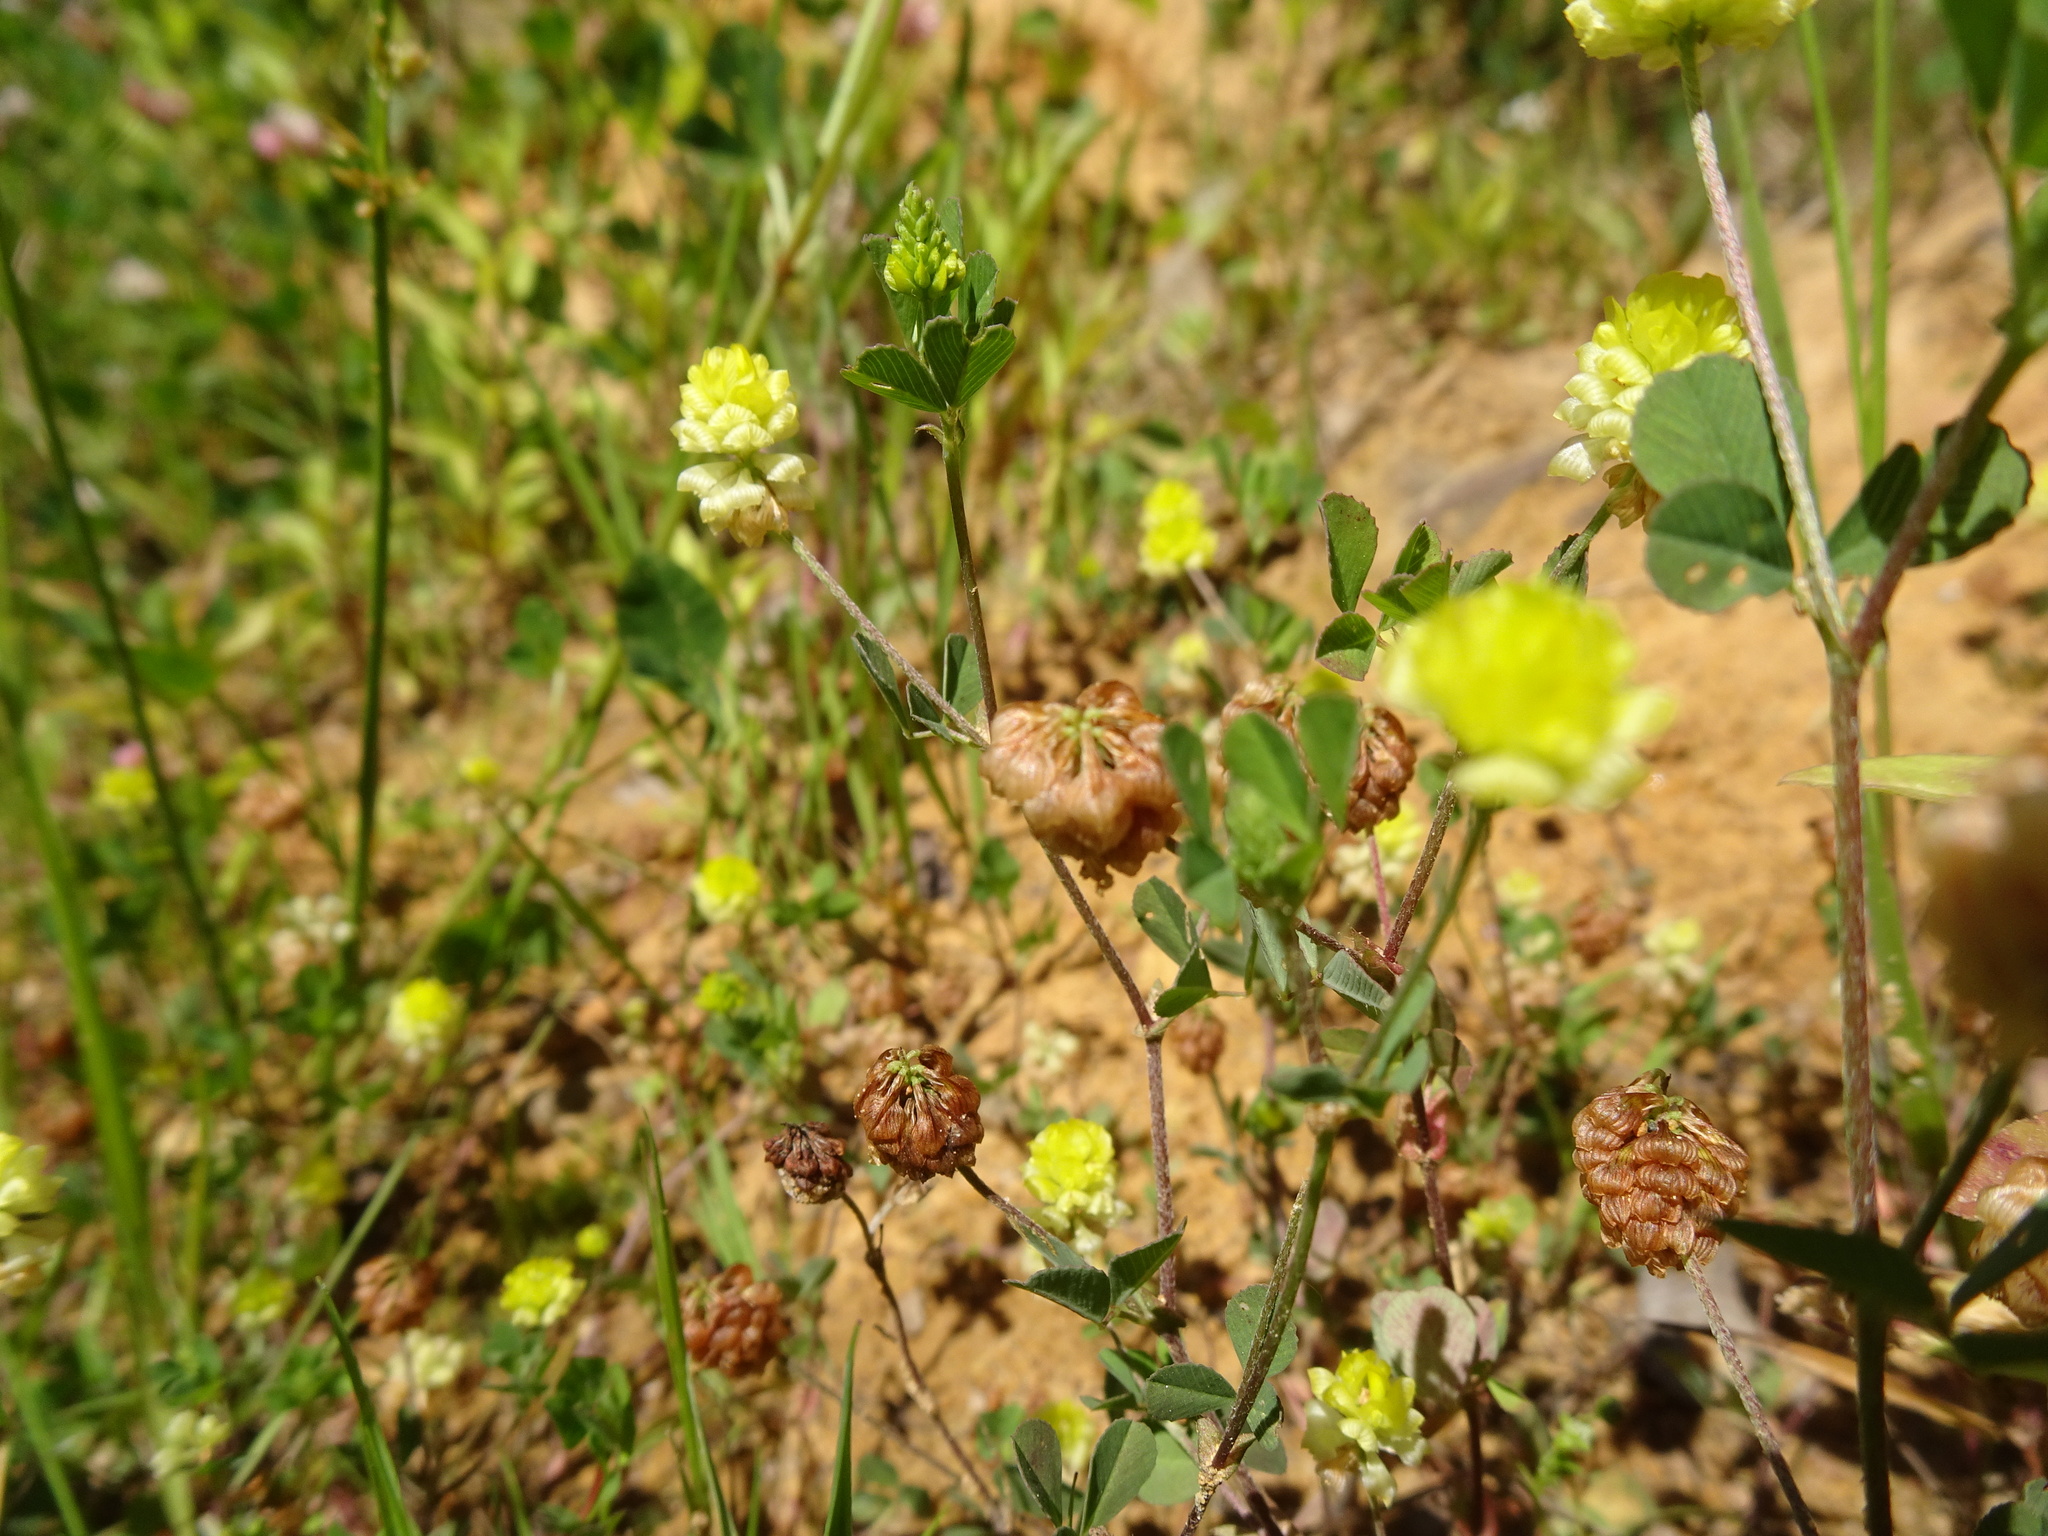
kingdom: Plantae
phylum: Tracheophyta
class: Magnoliopsida
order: Fabales
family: Fabaceae
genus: Trifolium
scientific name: Trifolium campestre
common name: Field clover
